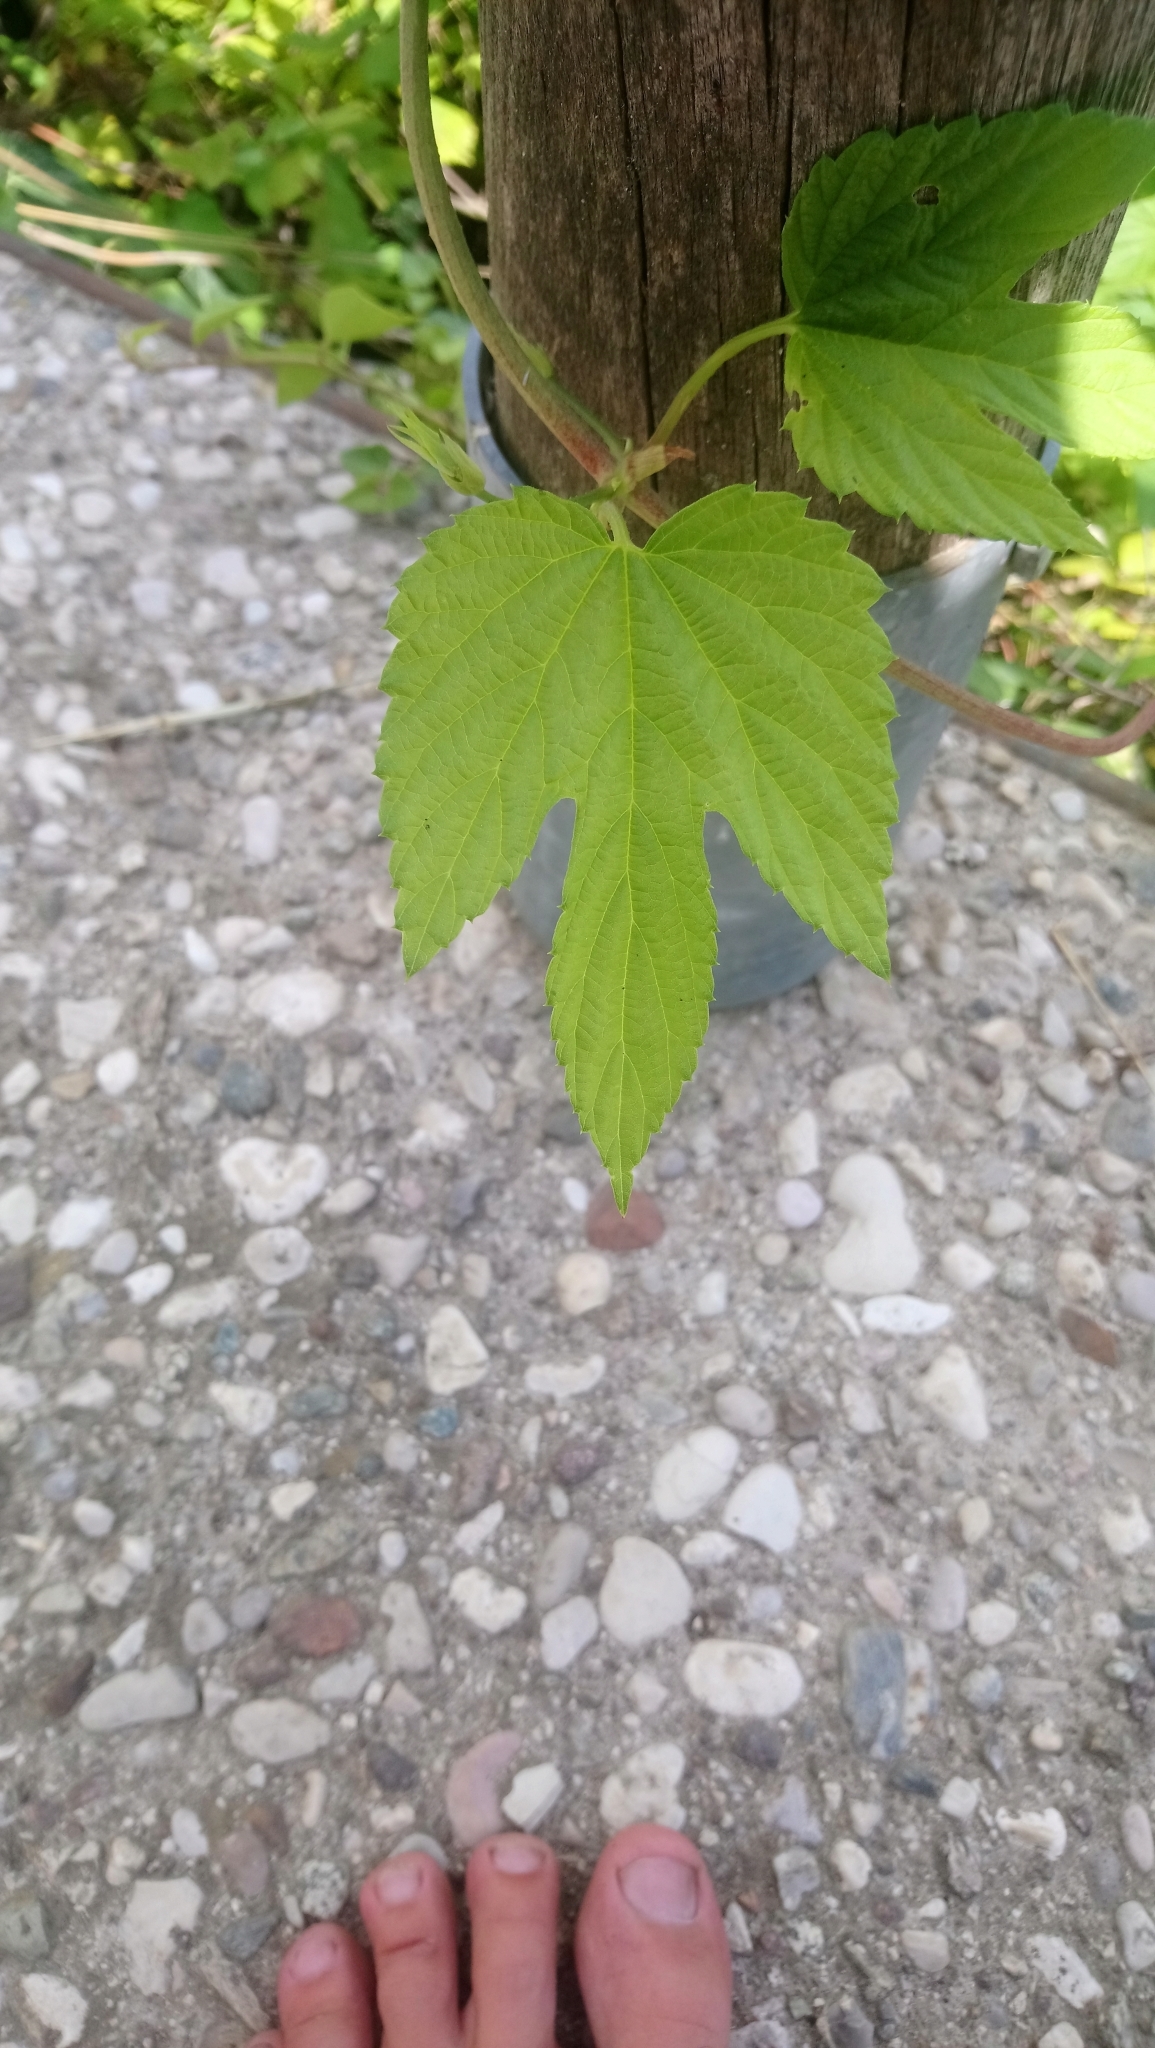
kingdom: Plantae
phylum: Tracheophyta
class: Magnoliopsida
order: Rosales
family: Cannabaceae
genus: Humulus
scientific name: Humulus lupulus
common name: Hop
